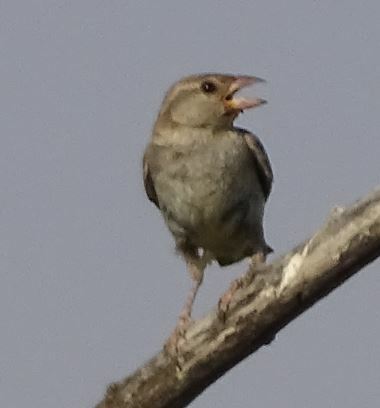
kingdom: Animalia
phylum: Chordata
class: Aves
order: Passeriformes
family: Passeridae
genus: Passer
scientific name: Passer domesticus
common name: House sparrow
